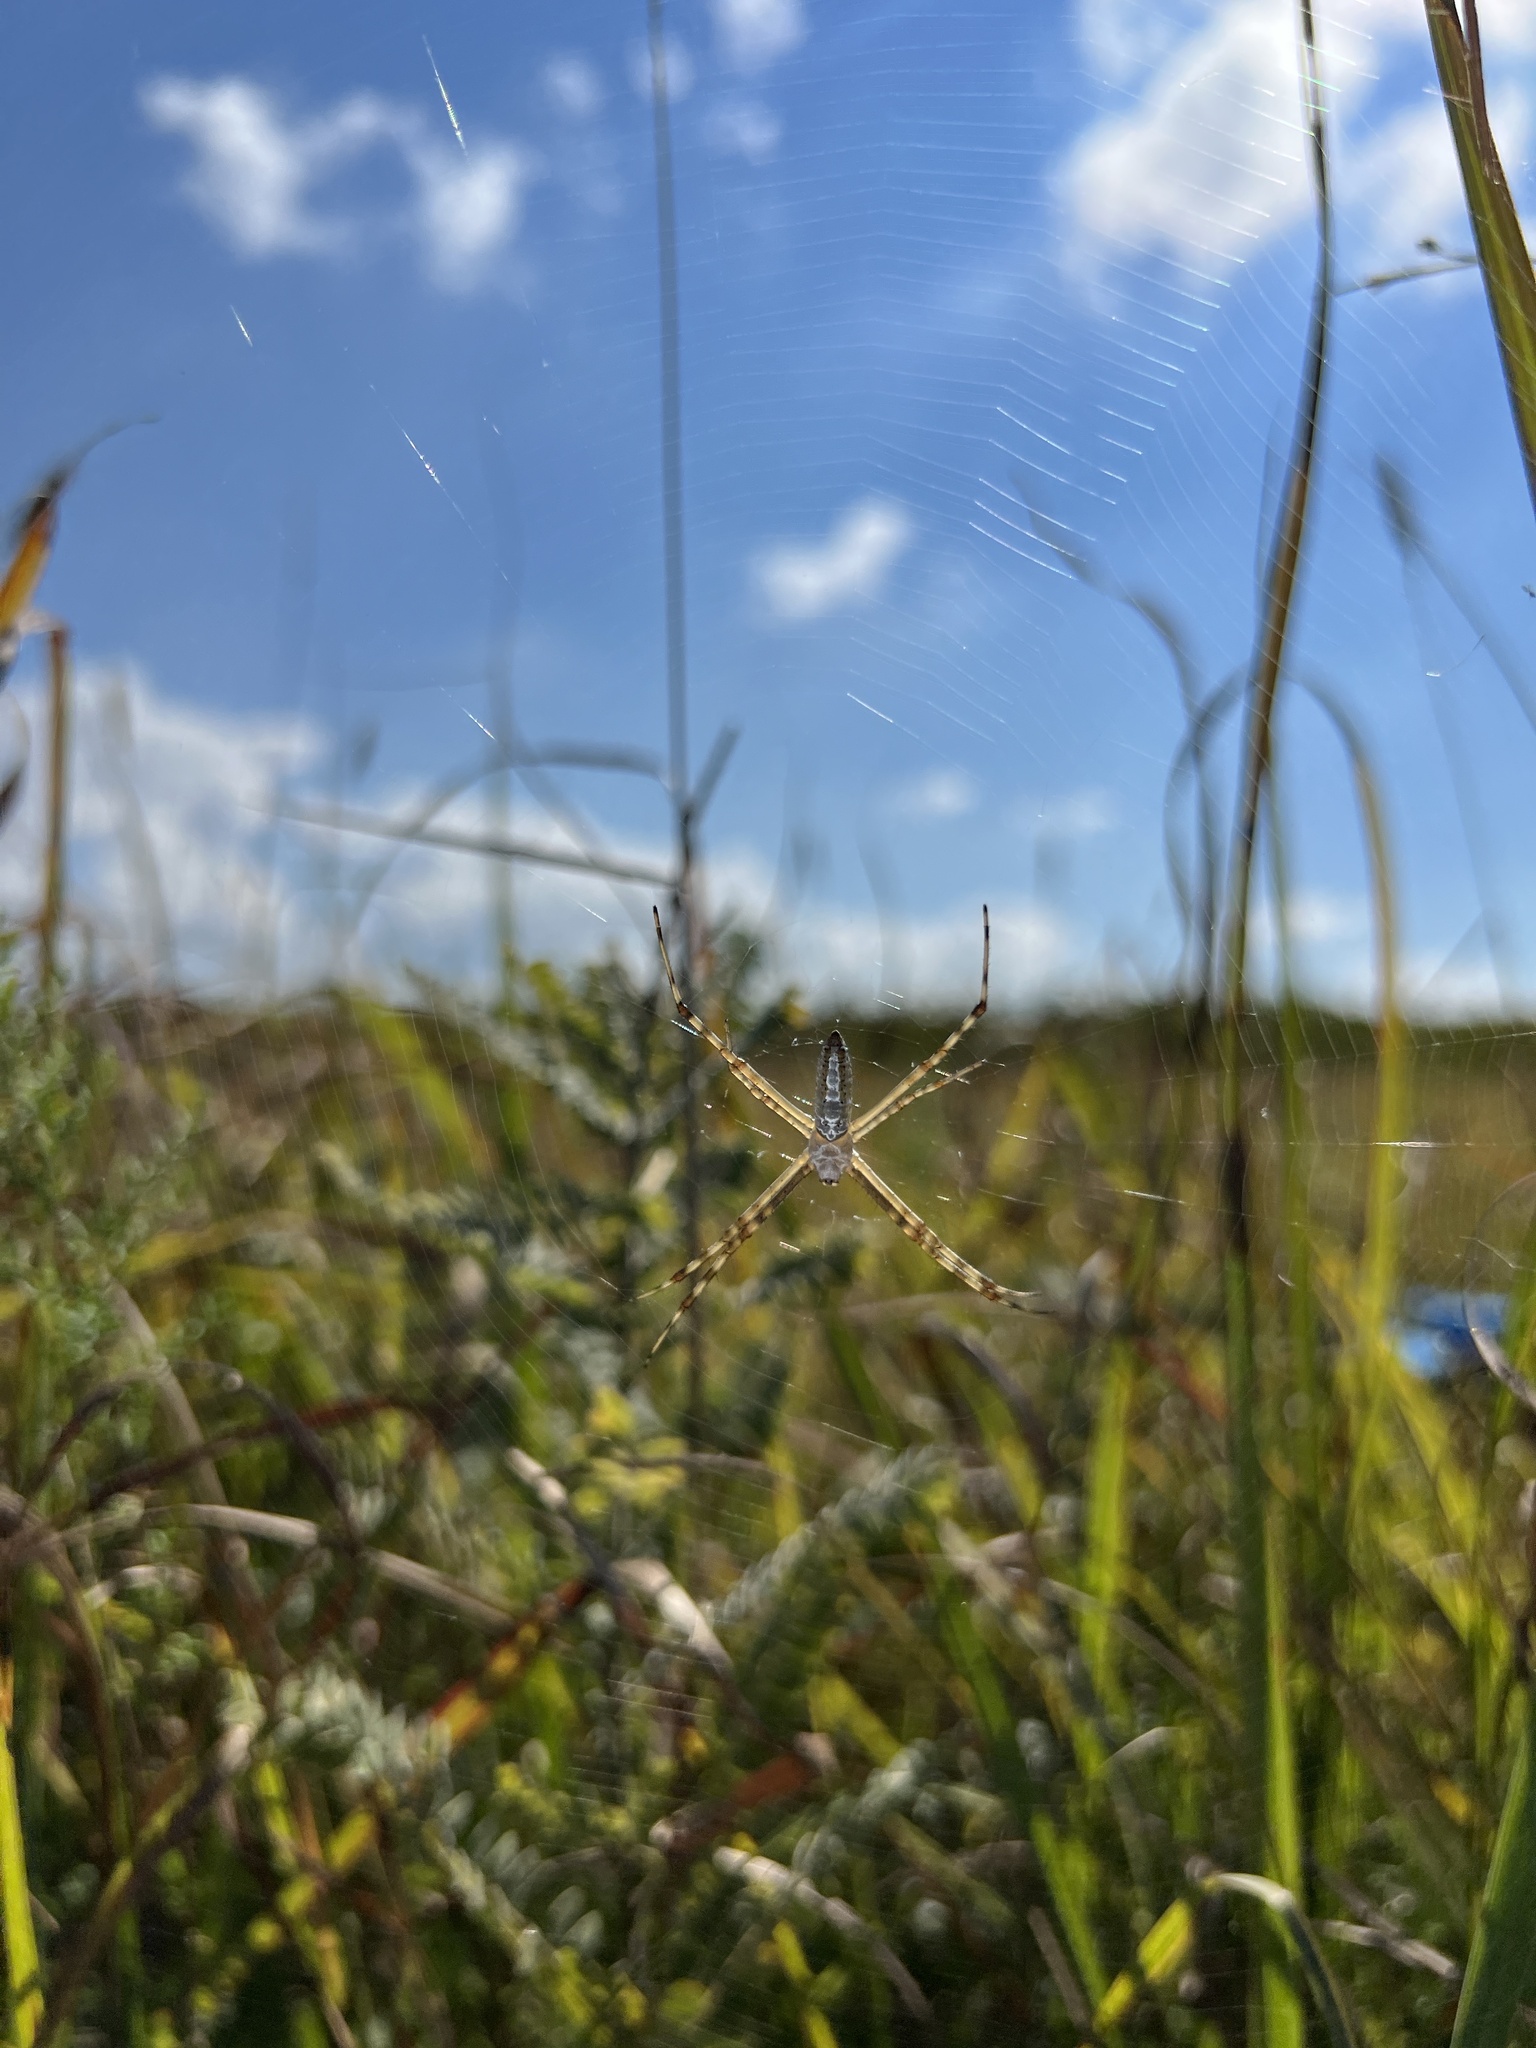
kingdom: Animalia
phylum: Arthropoda
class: Arachnida
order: Araneae
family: Araneidae
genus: Argiope
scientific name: Argiope trifasciata
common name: Banded garden spider
